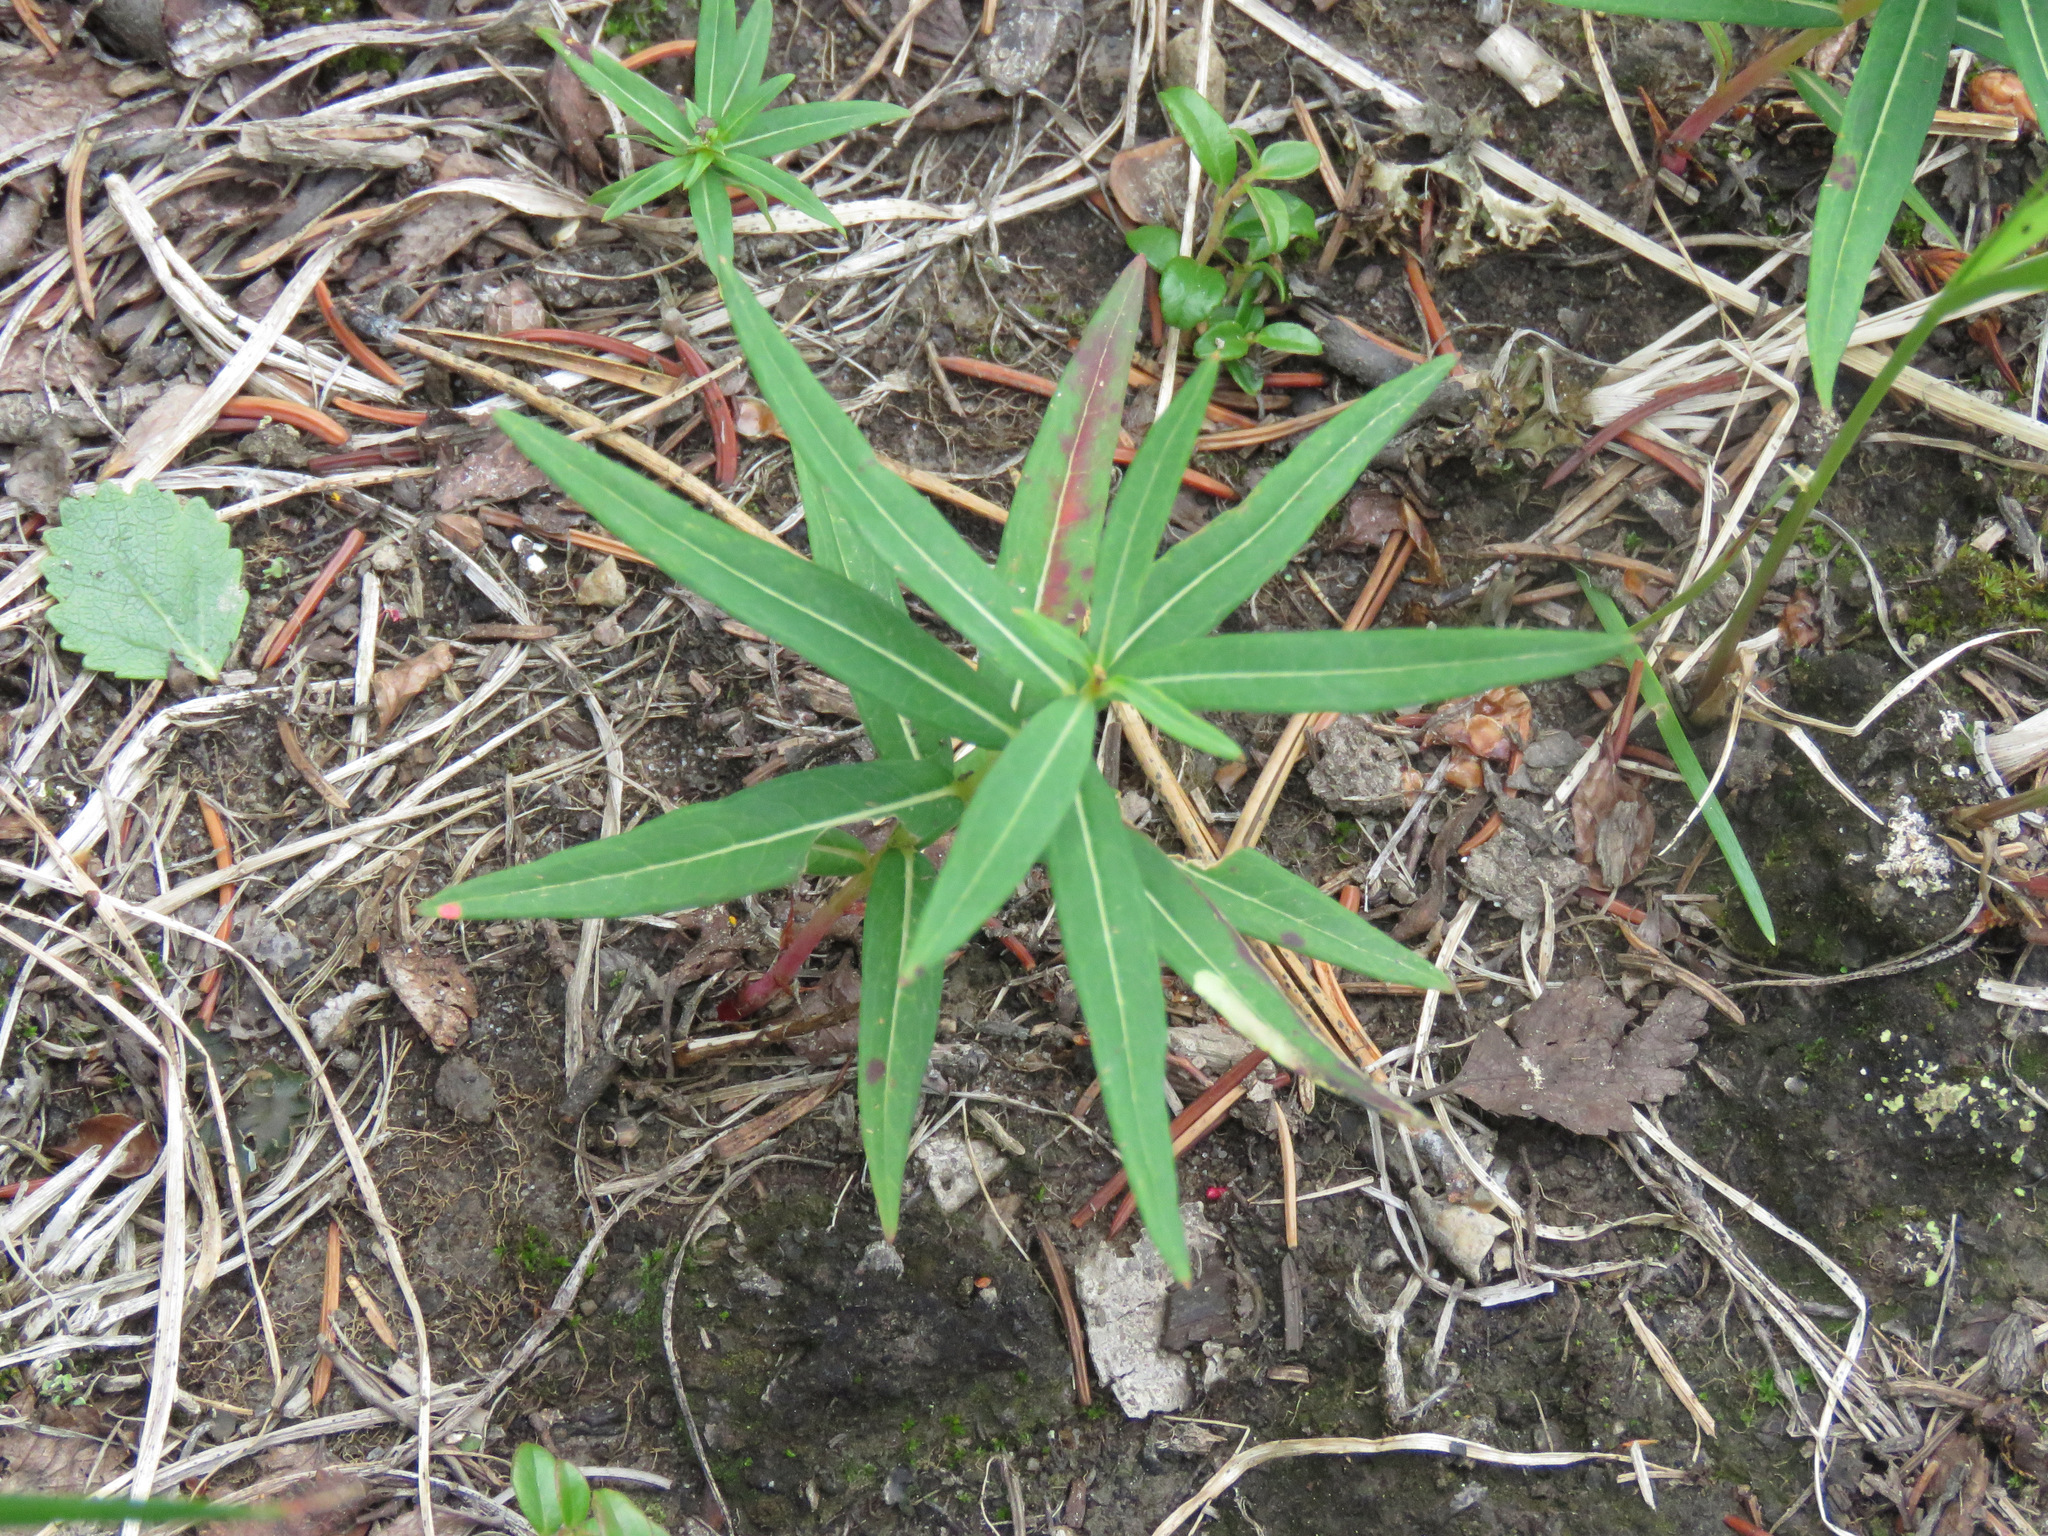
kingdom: Plantae
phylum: Tracheophyta
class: Magnoliopsida
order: Myrtales
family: Onagraceae
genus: Chamaenerion
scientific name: Chamaenerion angustifolium
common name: Fireweed
